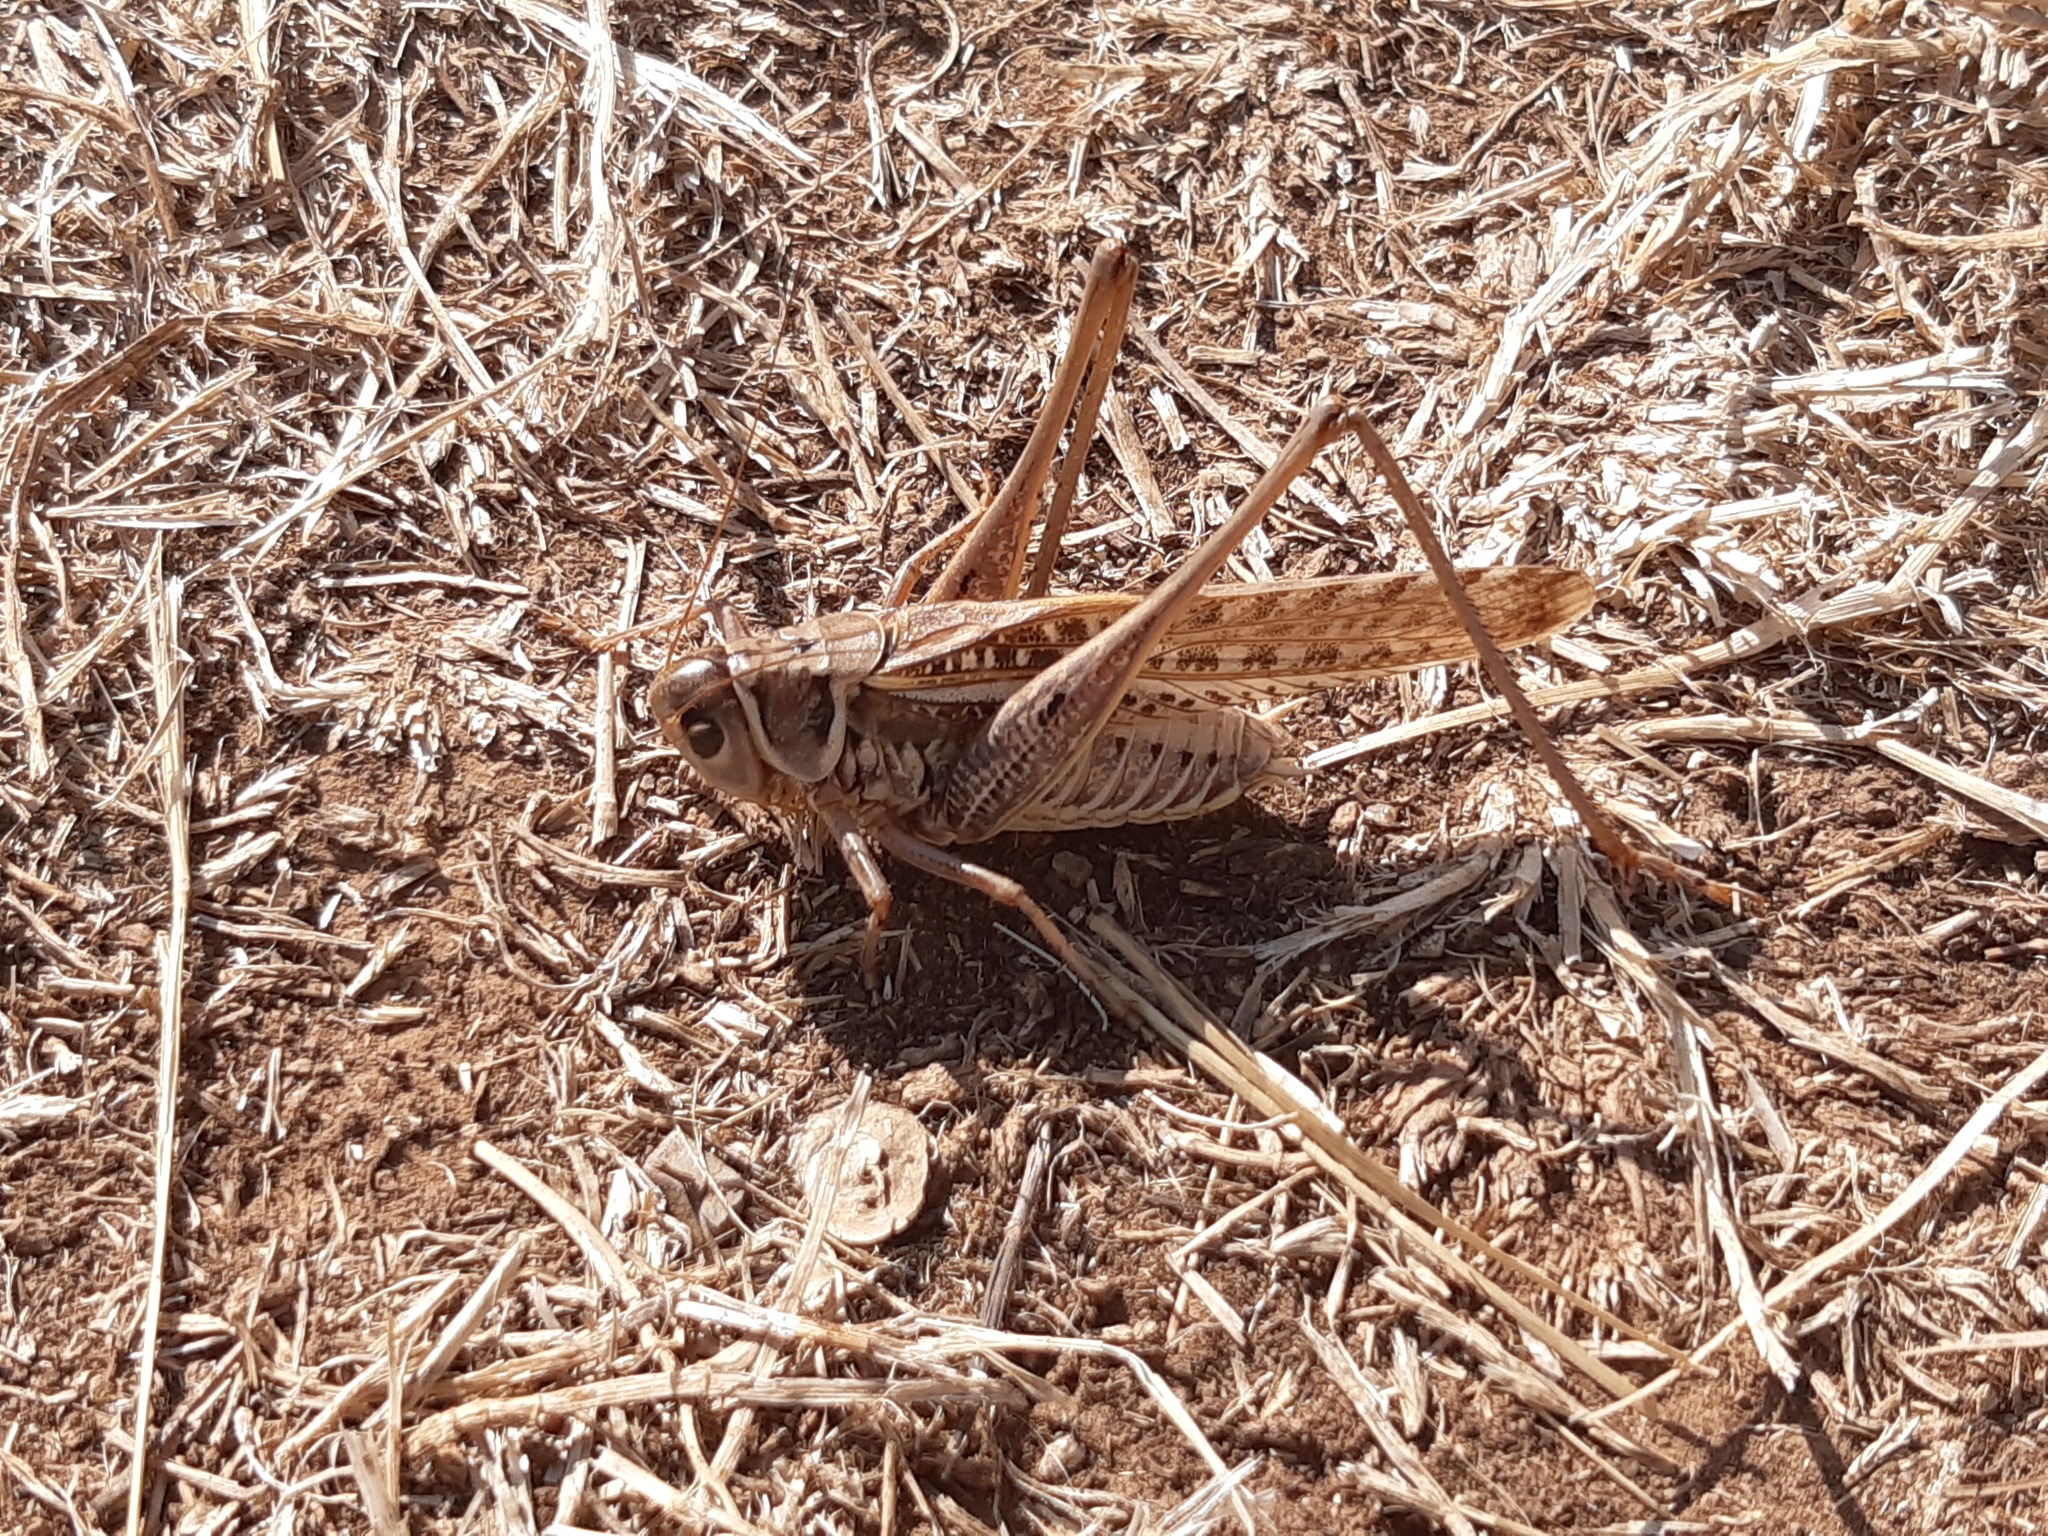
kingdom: Animalia
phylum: Arthropoda
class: Insecta
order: Orthoptera
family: Tettigoniidae
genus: Decticus
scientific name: Decticus albifrons
